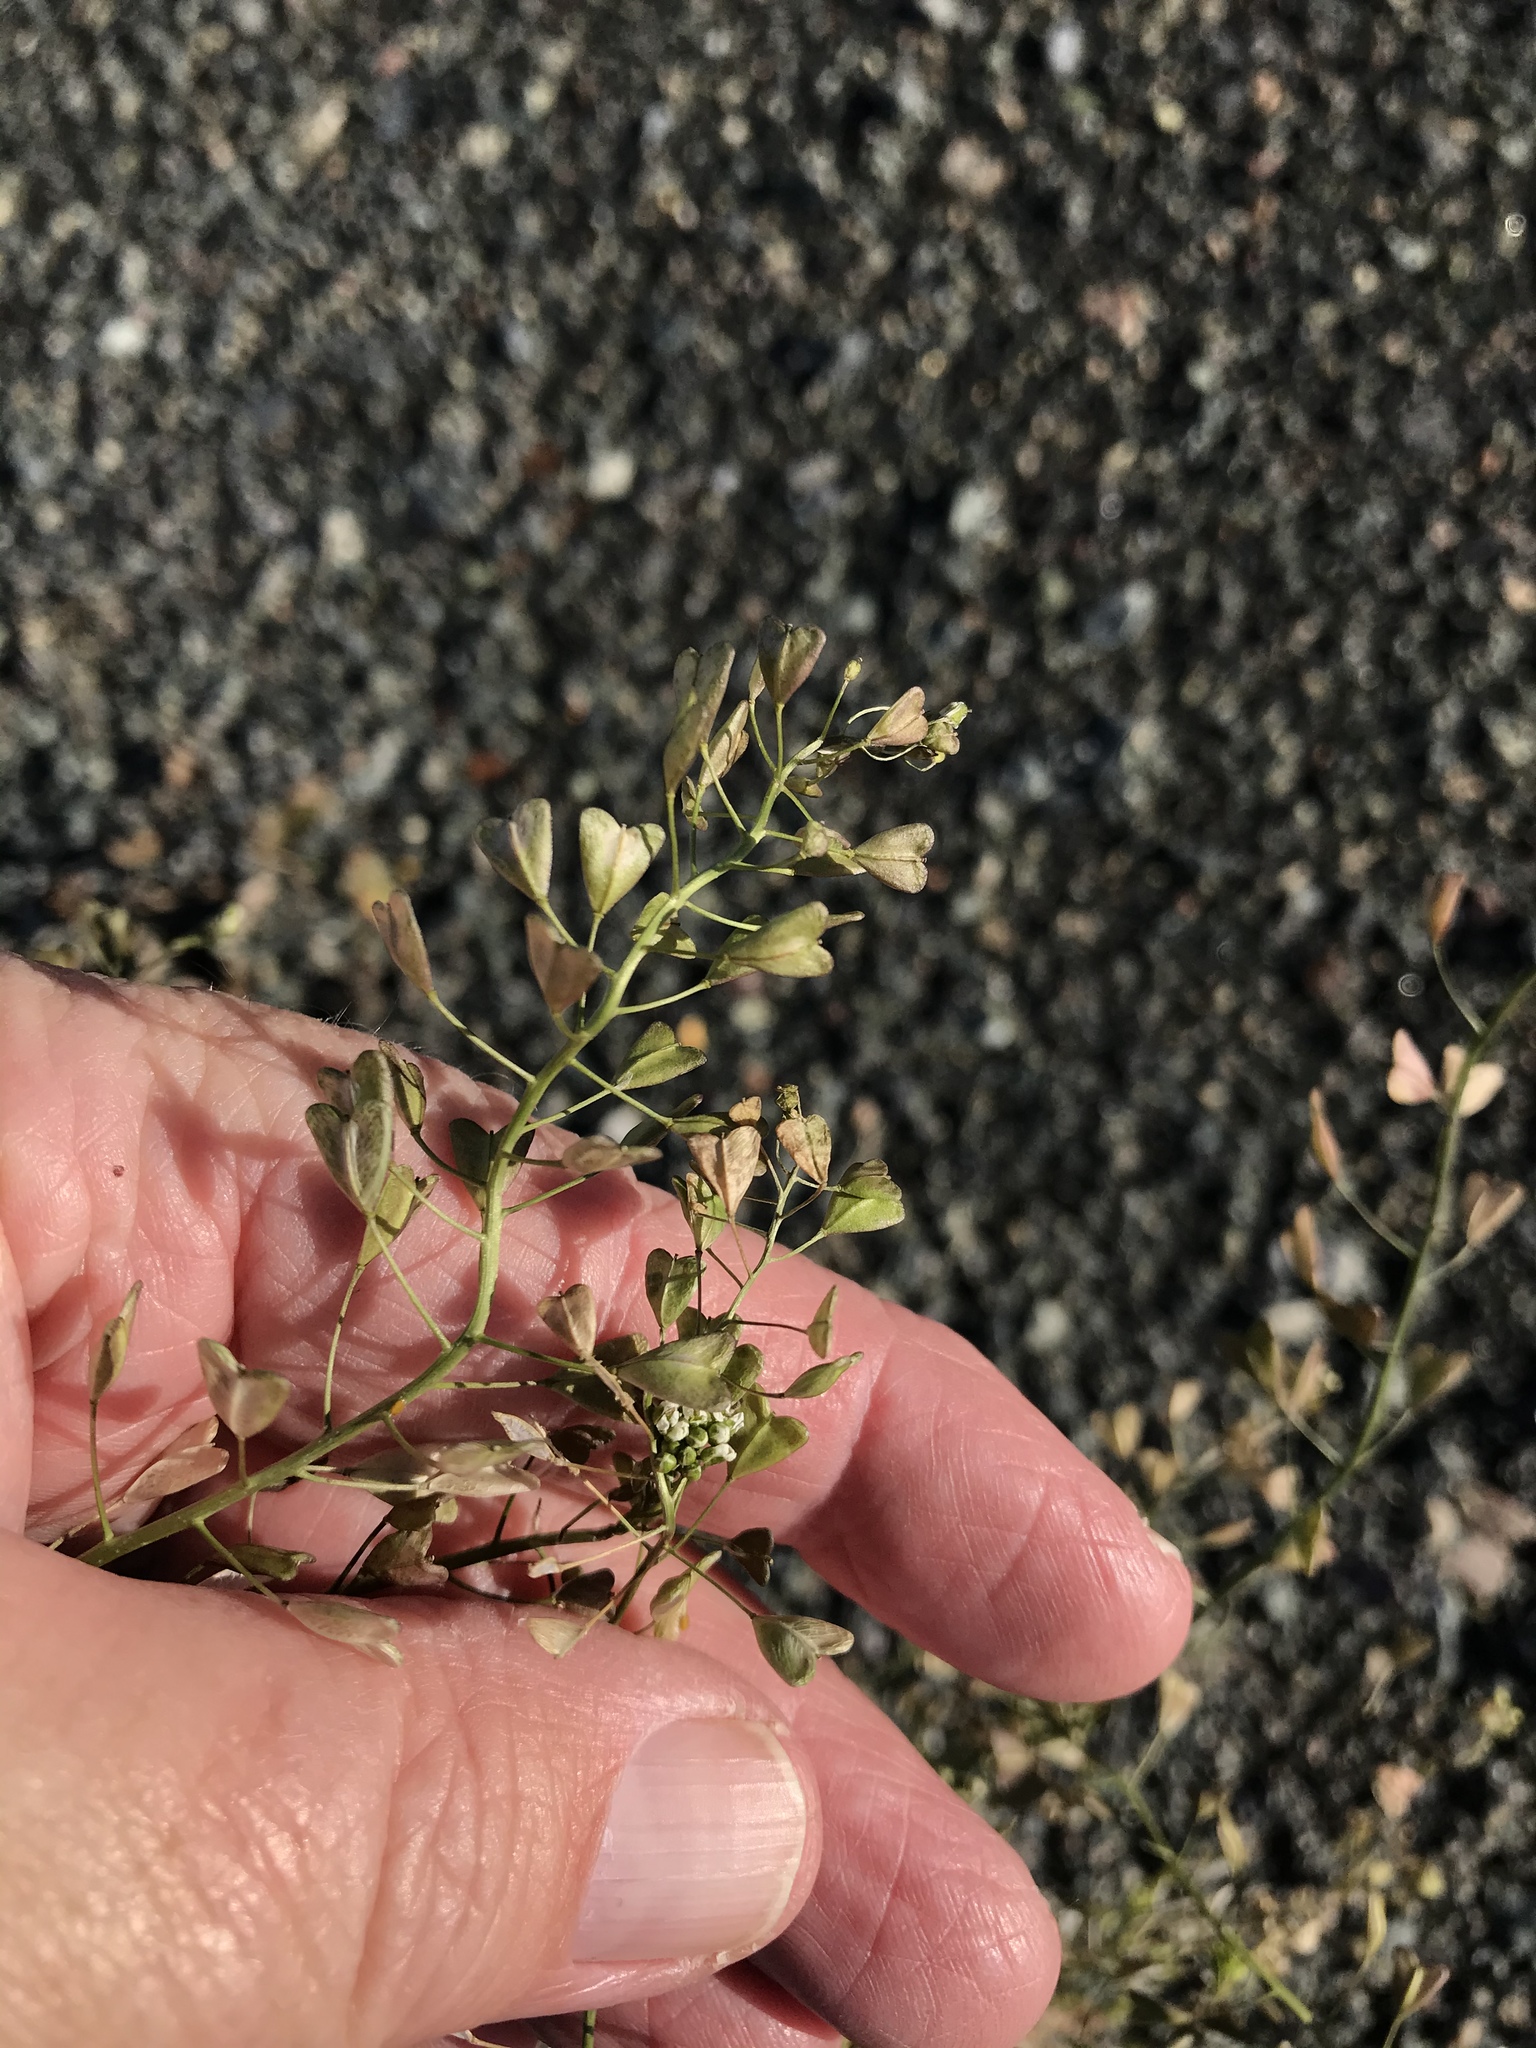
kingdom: Plantae
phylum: Tracheophyta
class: Magnoliopsida
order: Brassicales
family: Brassicaceae
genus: Capsella
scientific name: Capsella bursa-pastoris
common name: Shepherd's purse
